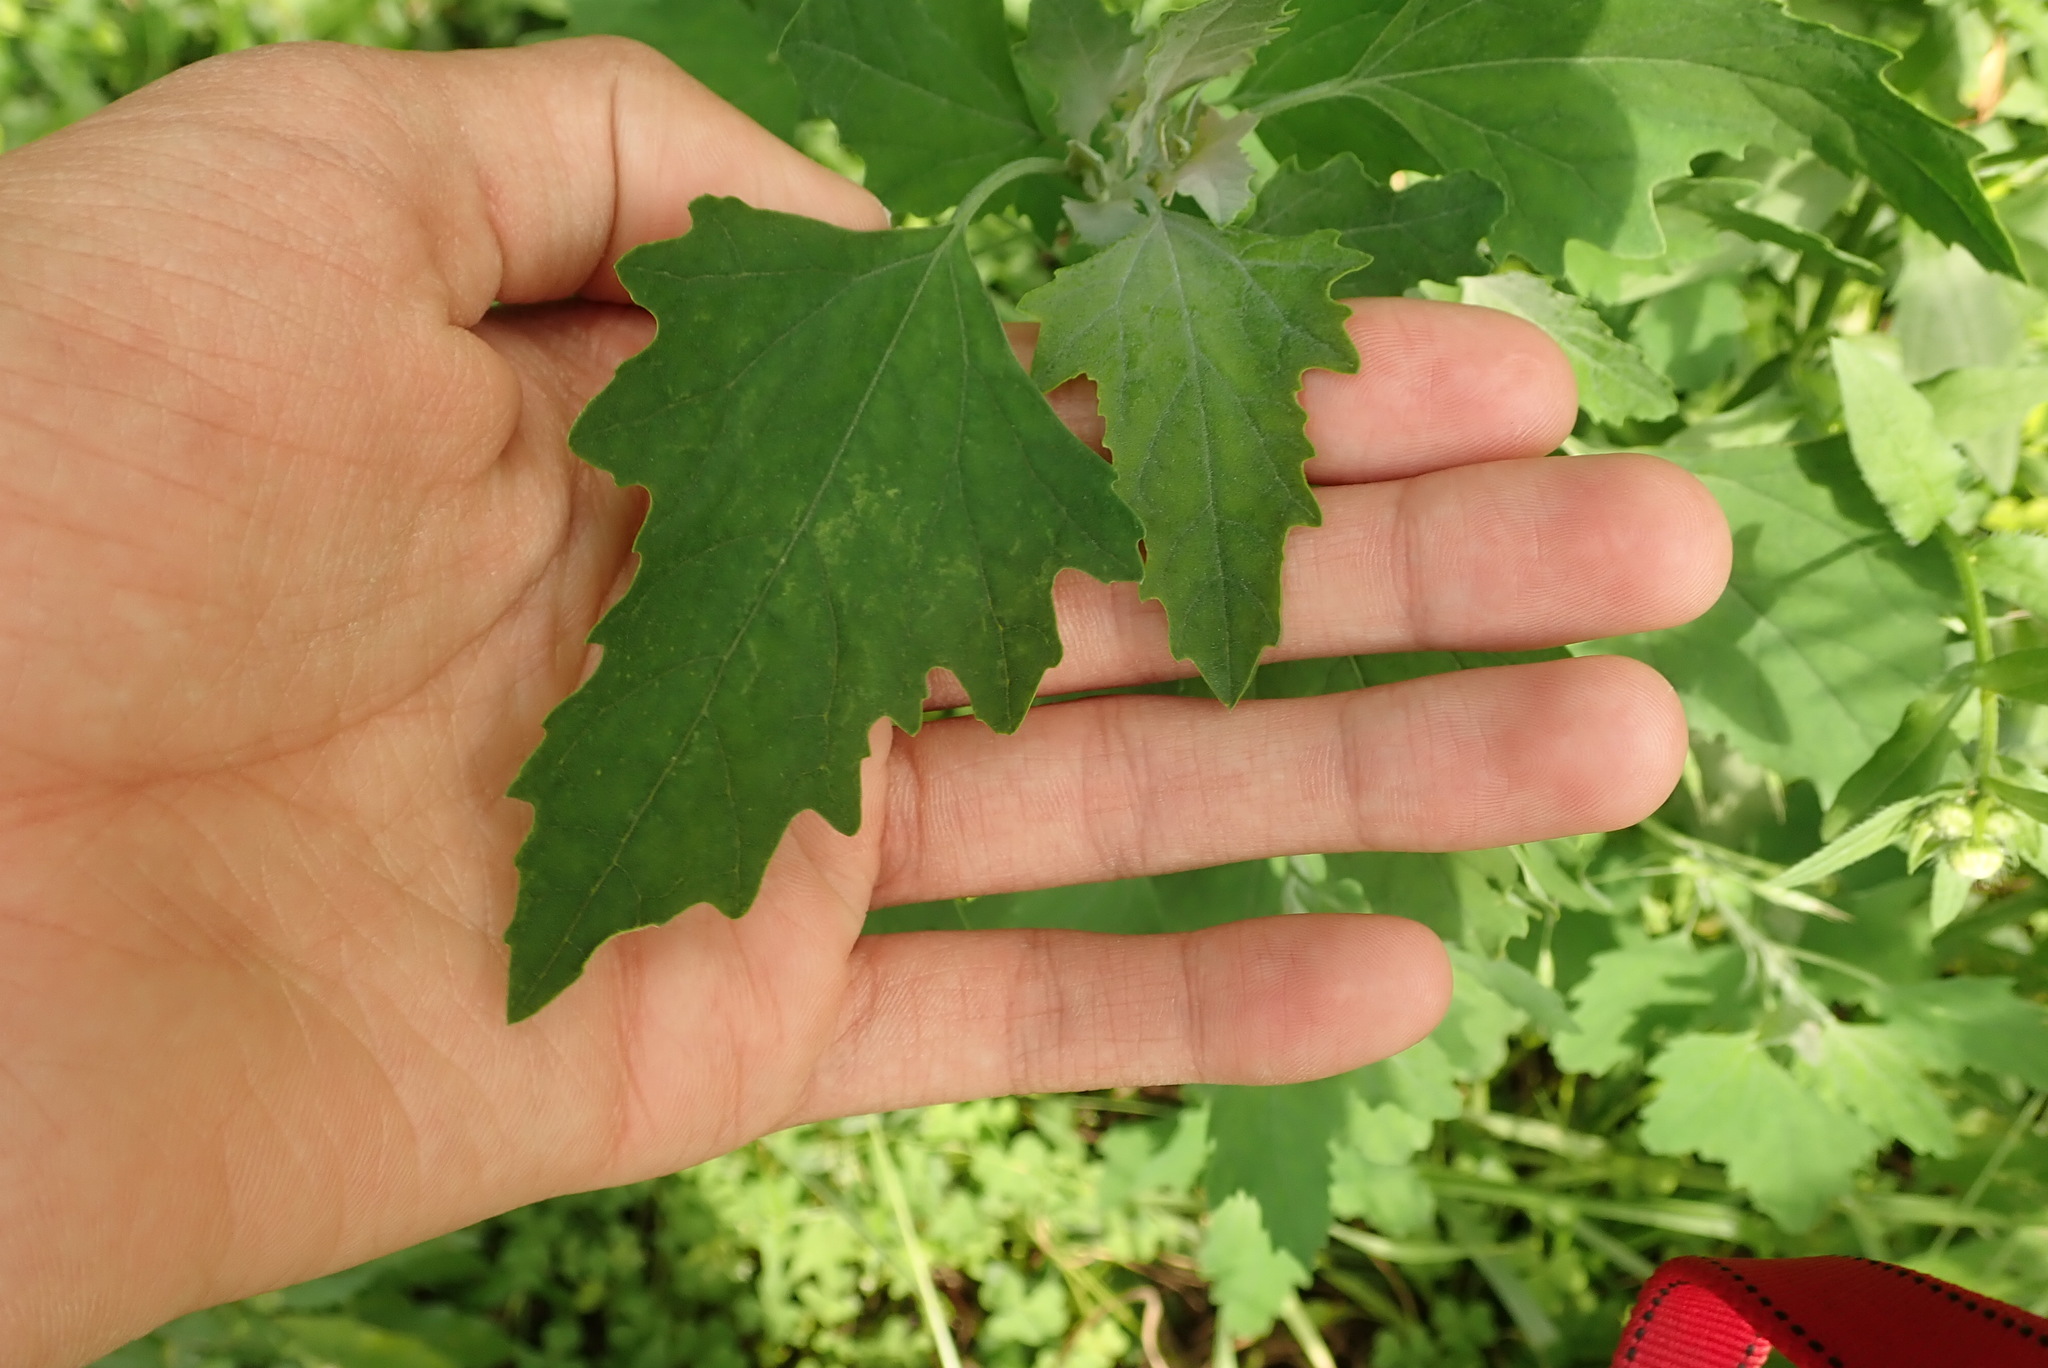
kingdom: Plantae
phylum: Tracheophyta
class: Magnoliopsida
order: Caryophyllales
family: Amaranthaceae
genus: Chenopodium
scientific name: Chenopodium album
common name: Fat-hen
